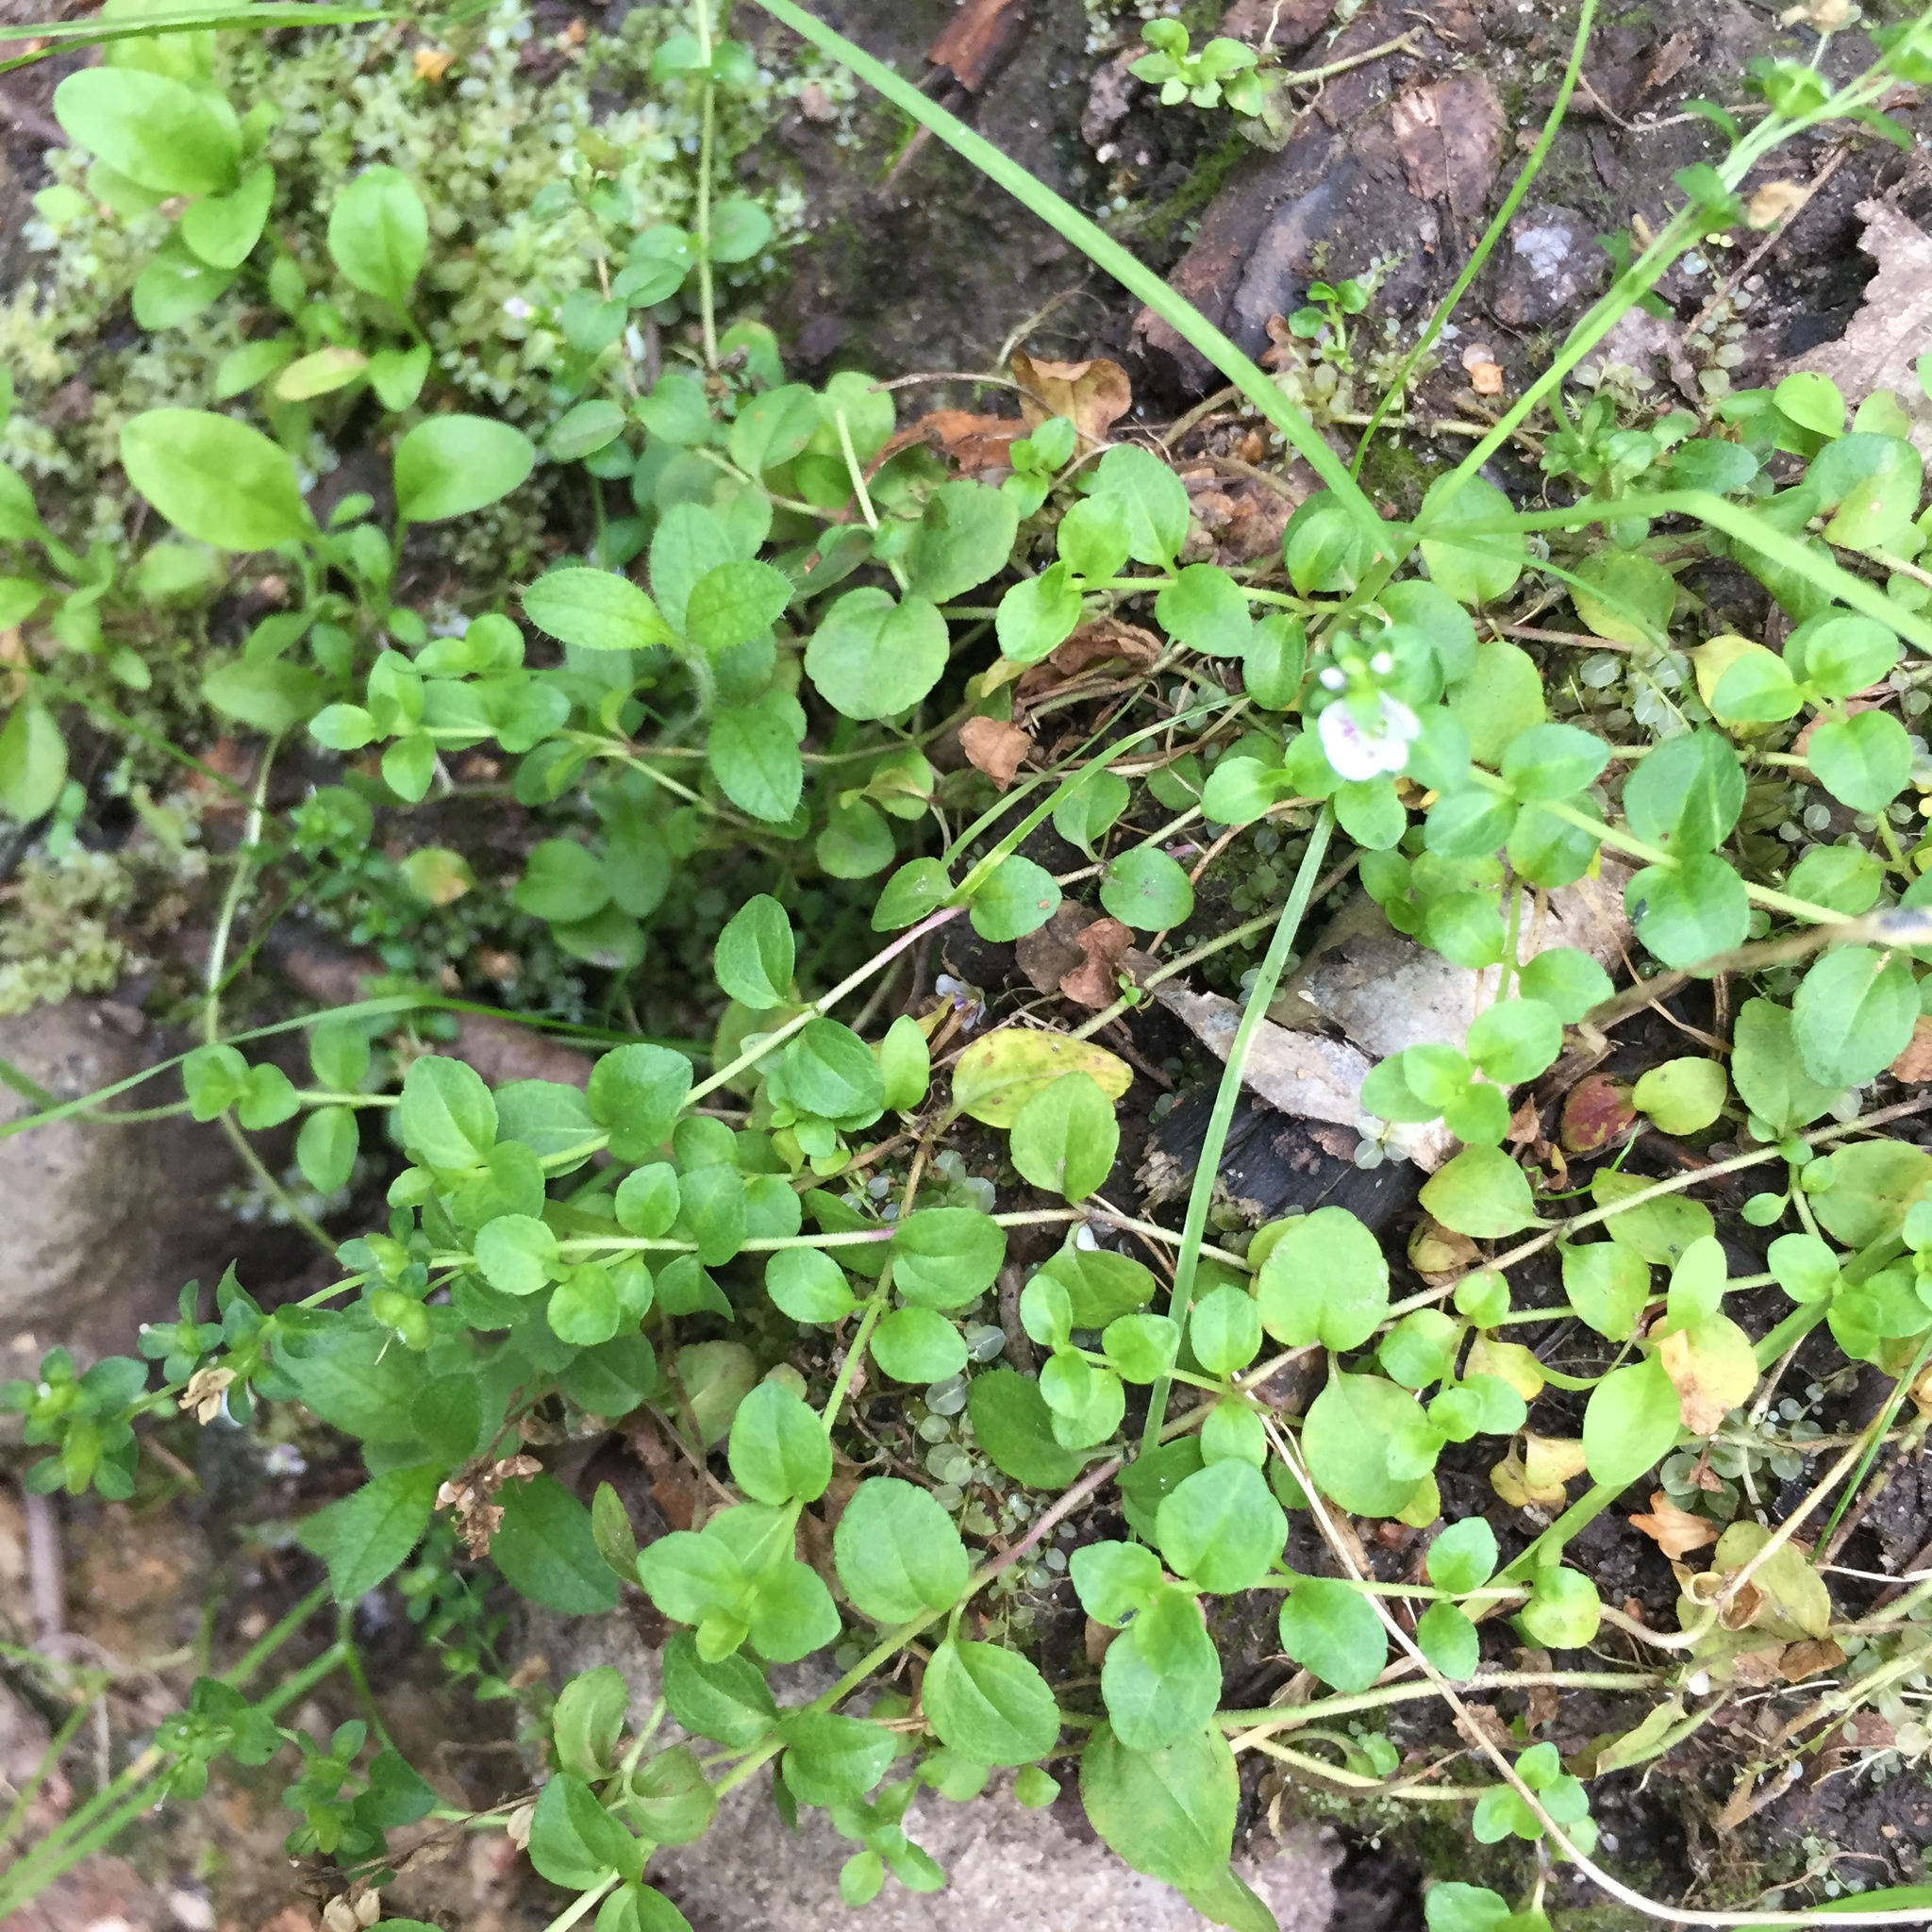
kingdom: Plantae
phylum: Tracheophyta
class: Magnoliopsida
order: Lamiales
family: Plantaginaceae
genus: Veronica
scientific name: Veronica serpyllifolia
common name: Thyme-leaved speedwell
